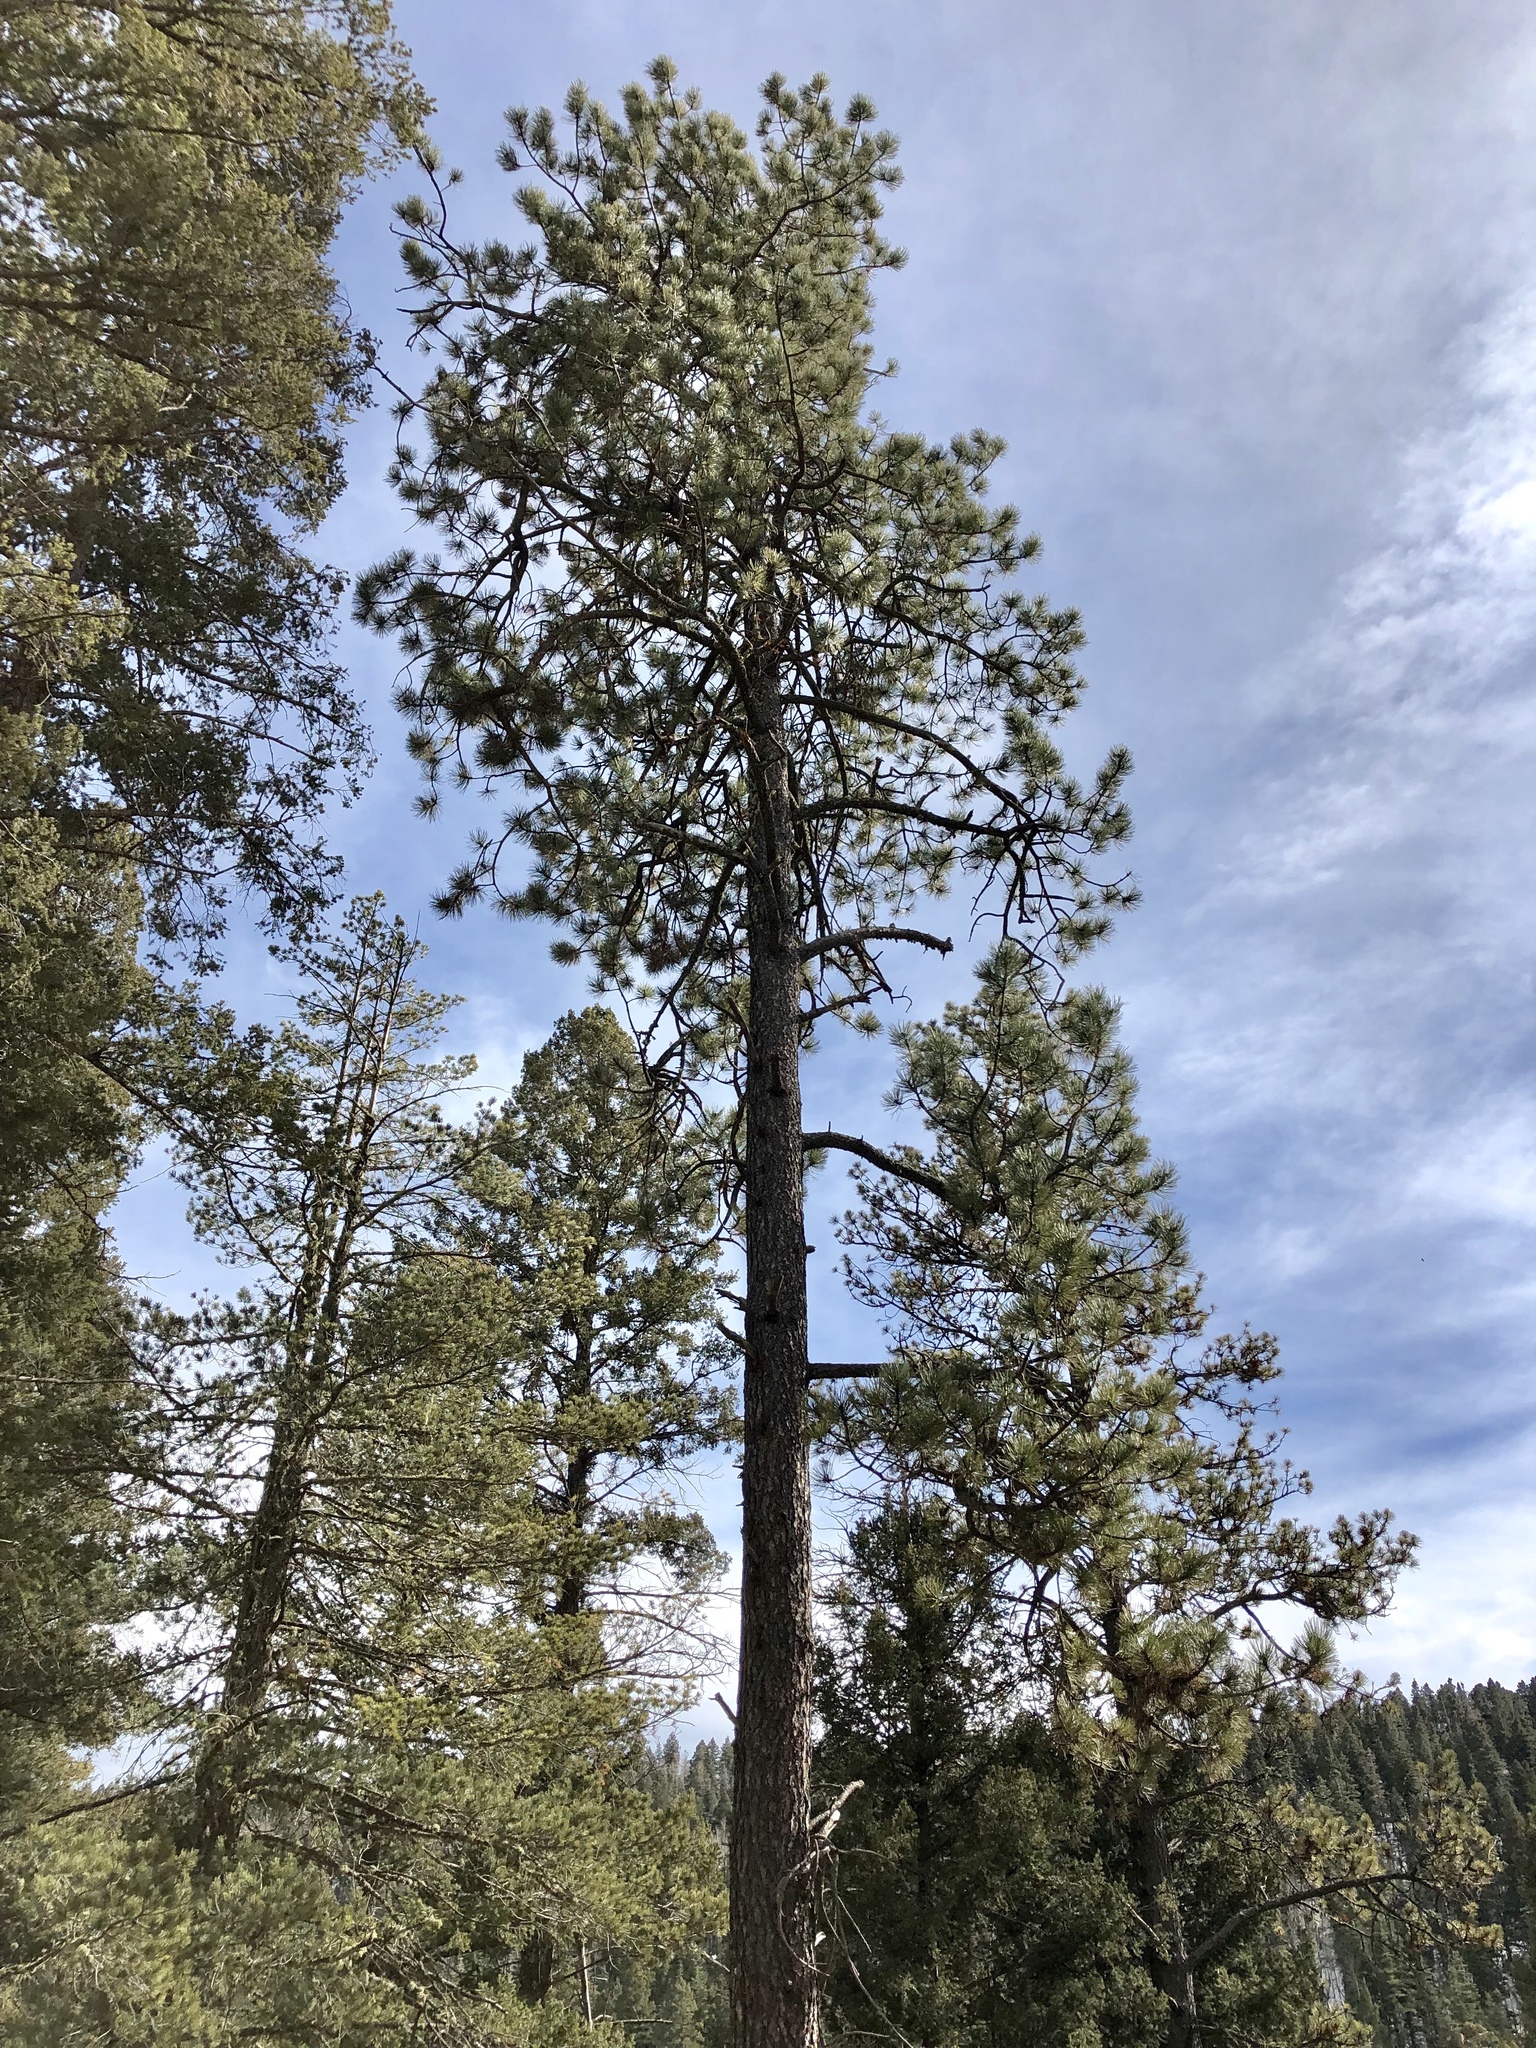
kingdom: Plantae
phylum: Tracheophyta
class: Pinopsida
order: Pinales
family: Pinaceae
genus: Pinus
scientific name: Pinus ponderosa
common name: Western yellow-pine
